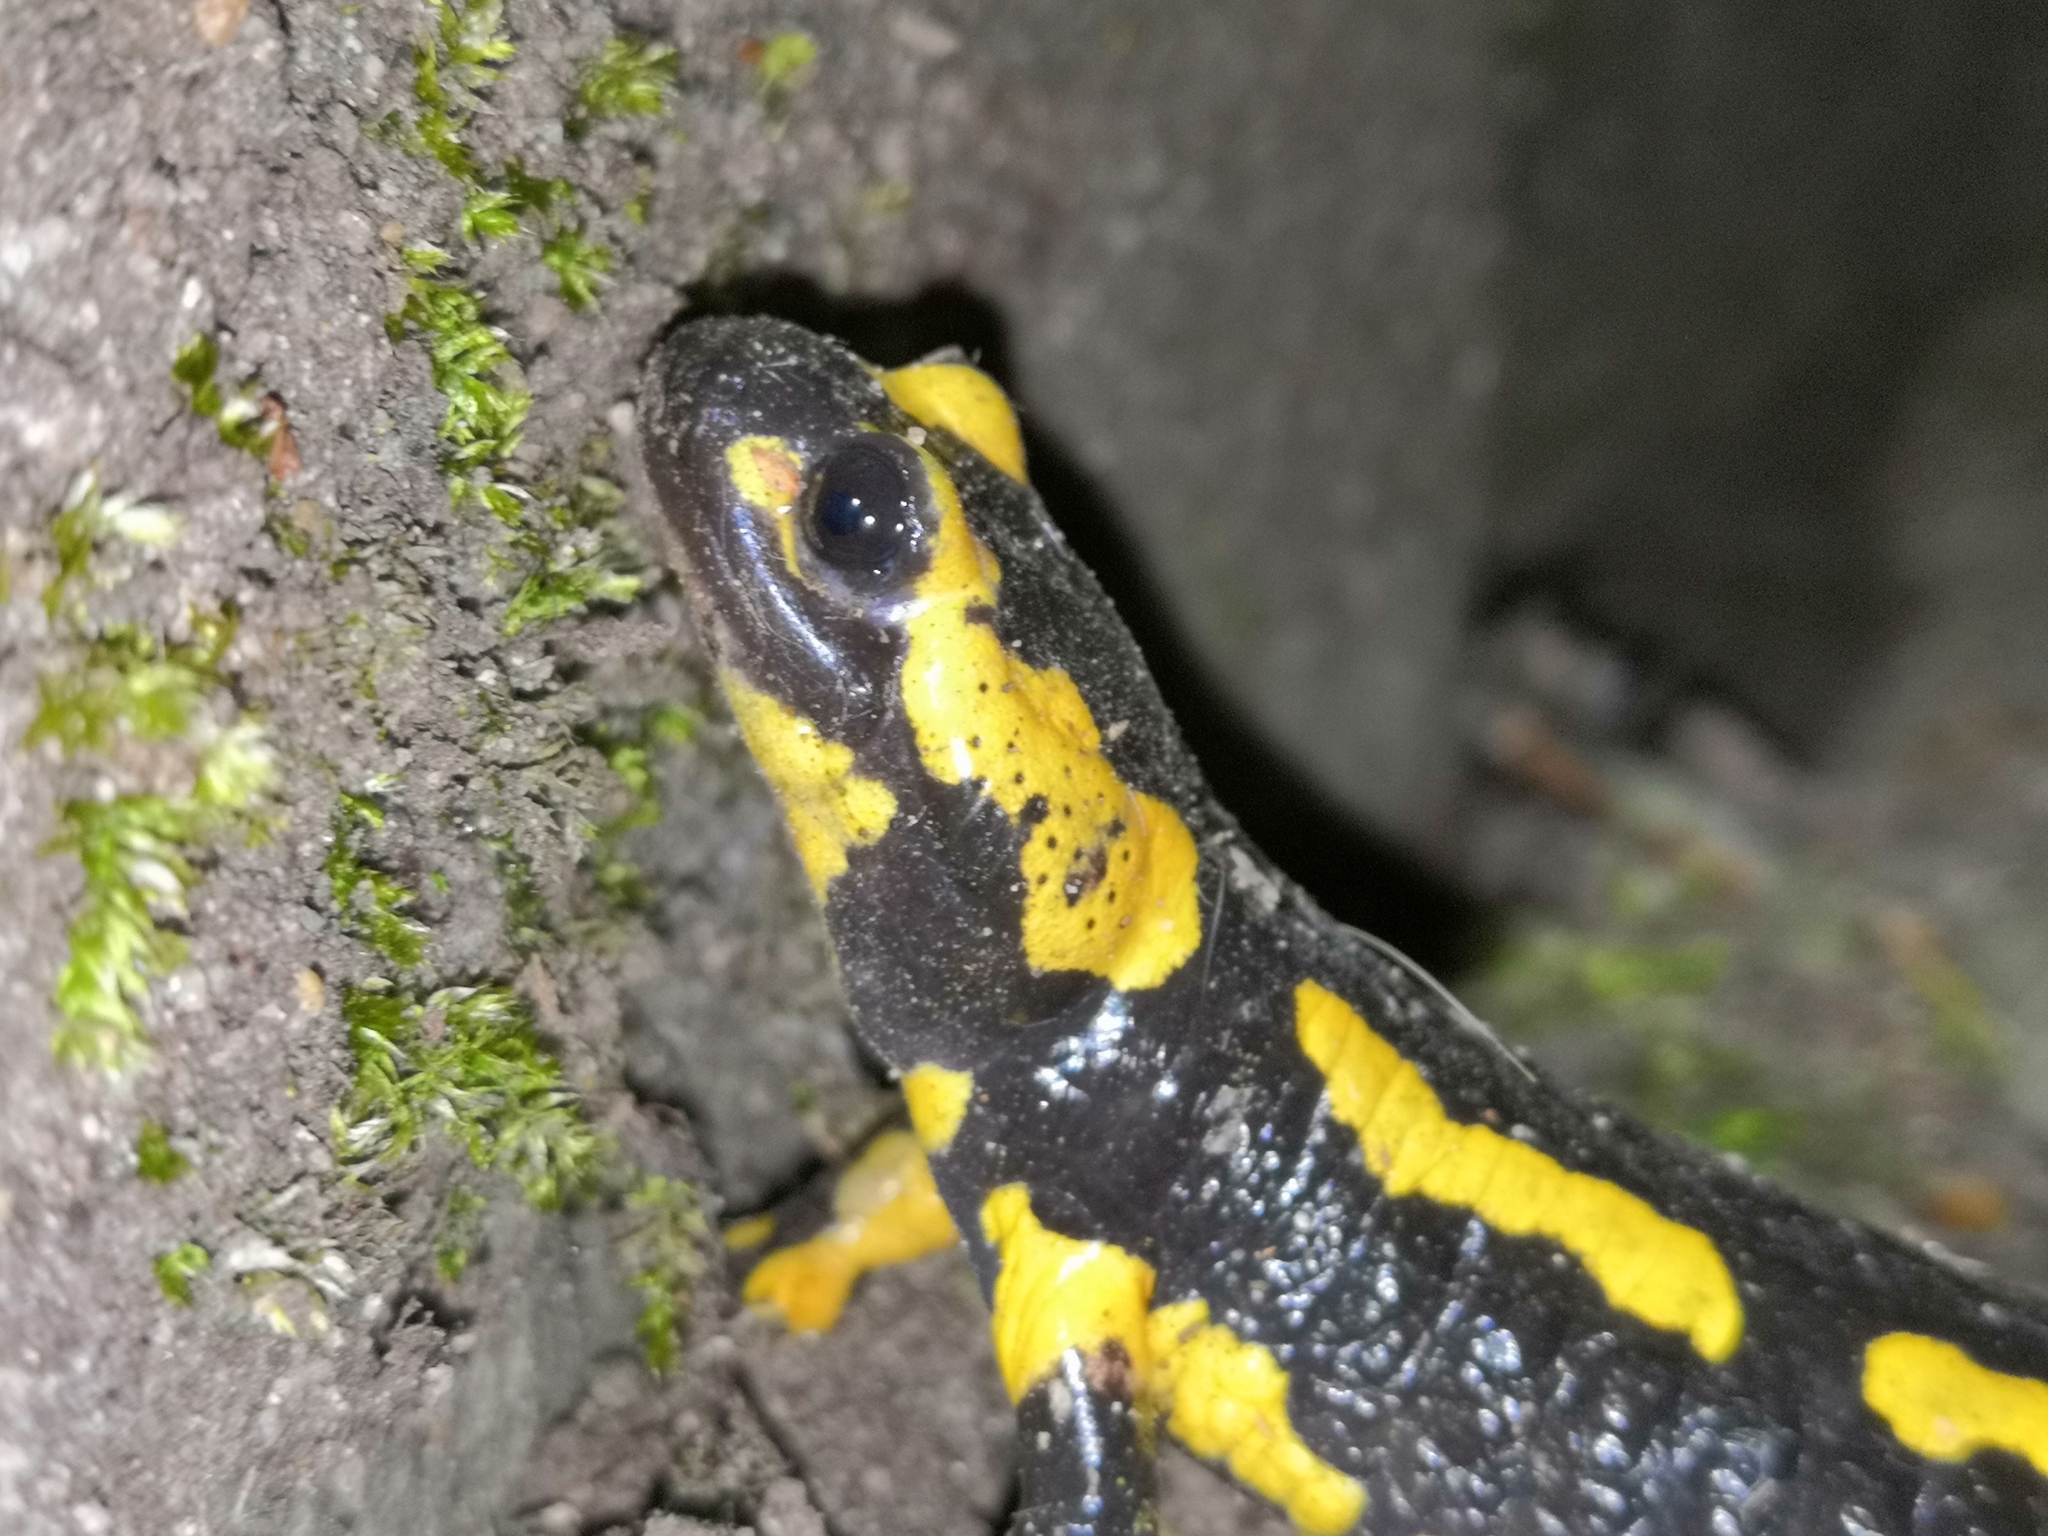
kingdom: Animalia
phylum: Chordata
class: Amphibia
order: Caudata
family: Salamandridae
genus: Salamandra
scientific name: Salamandra salamandra
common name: Fire salamander
